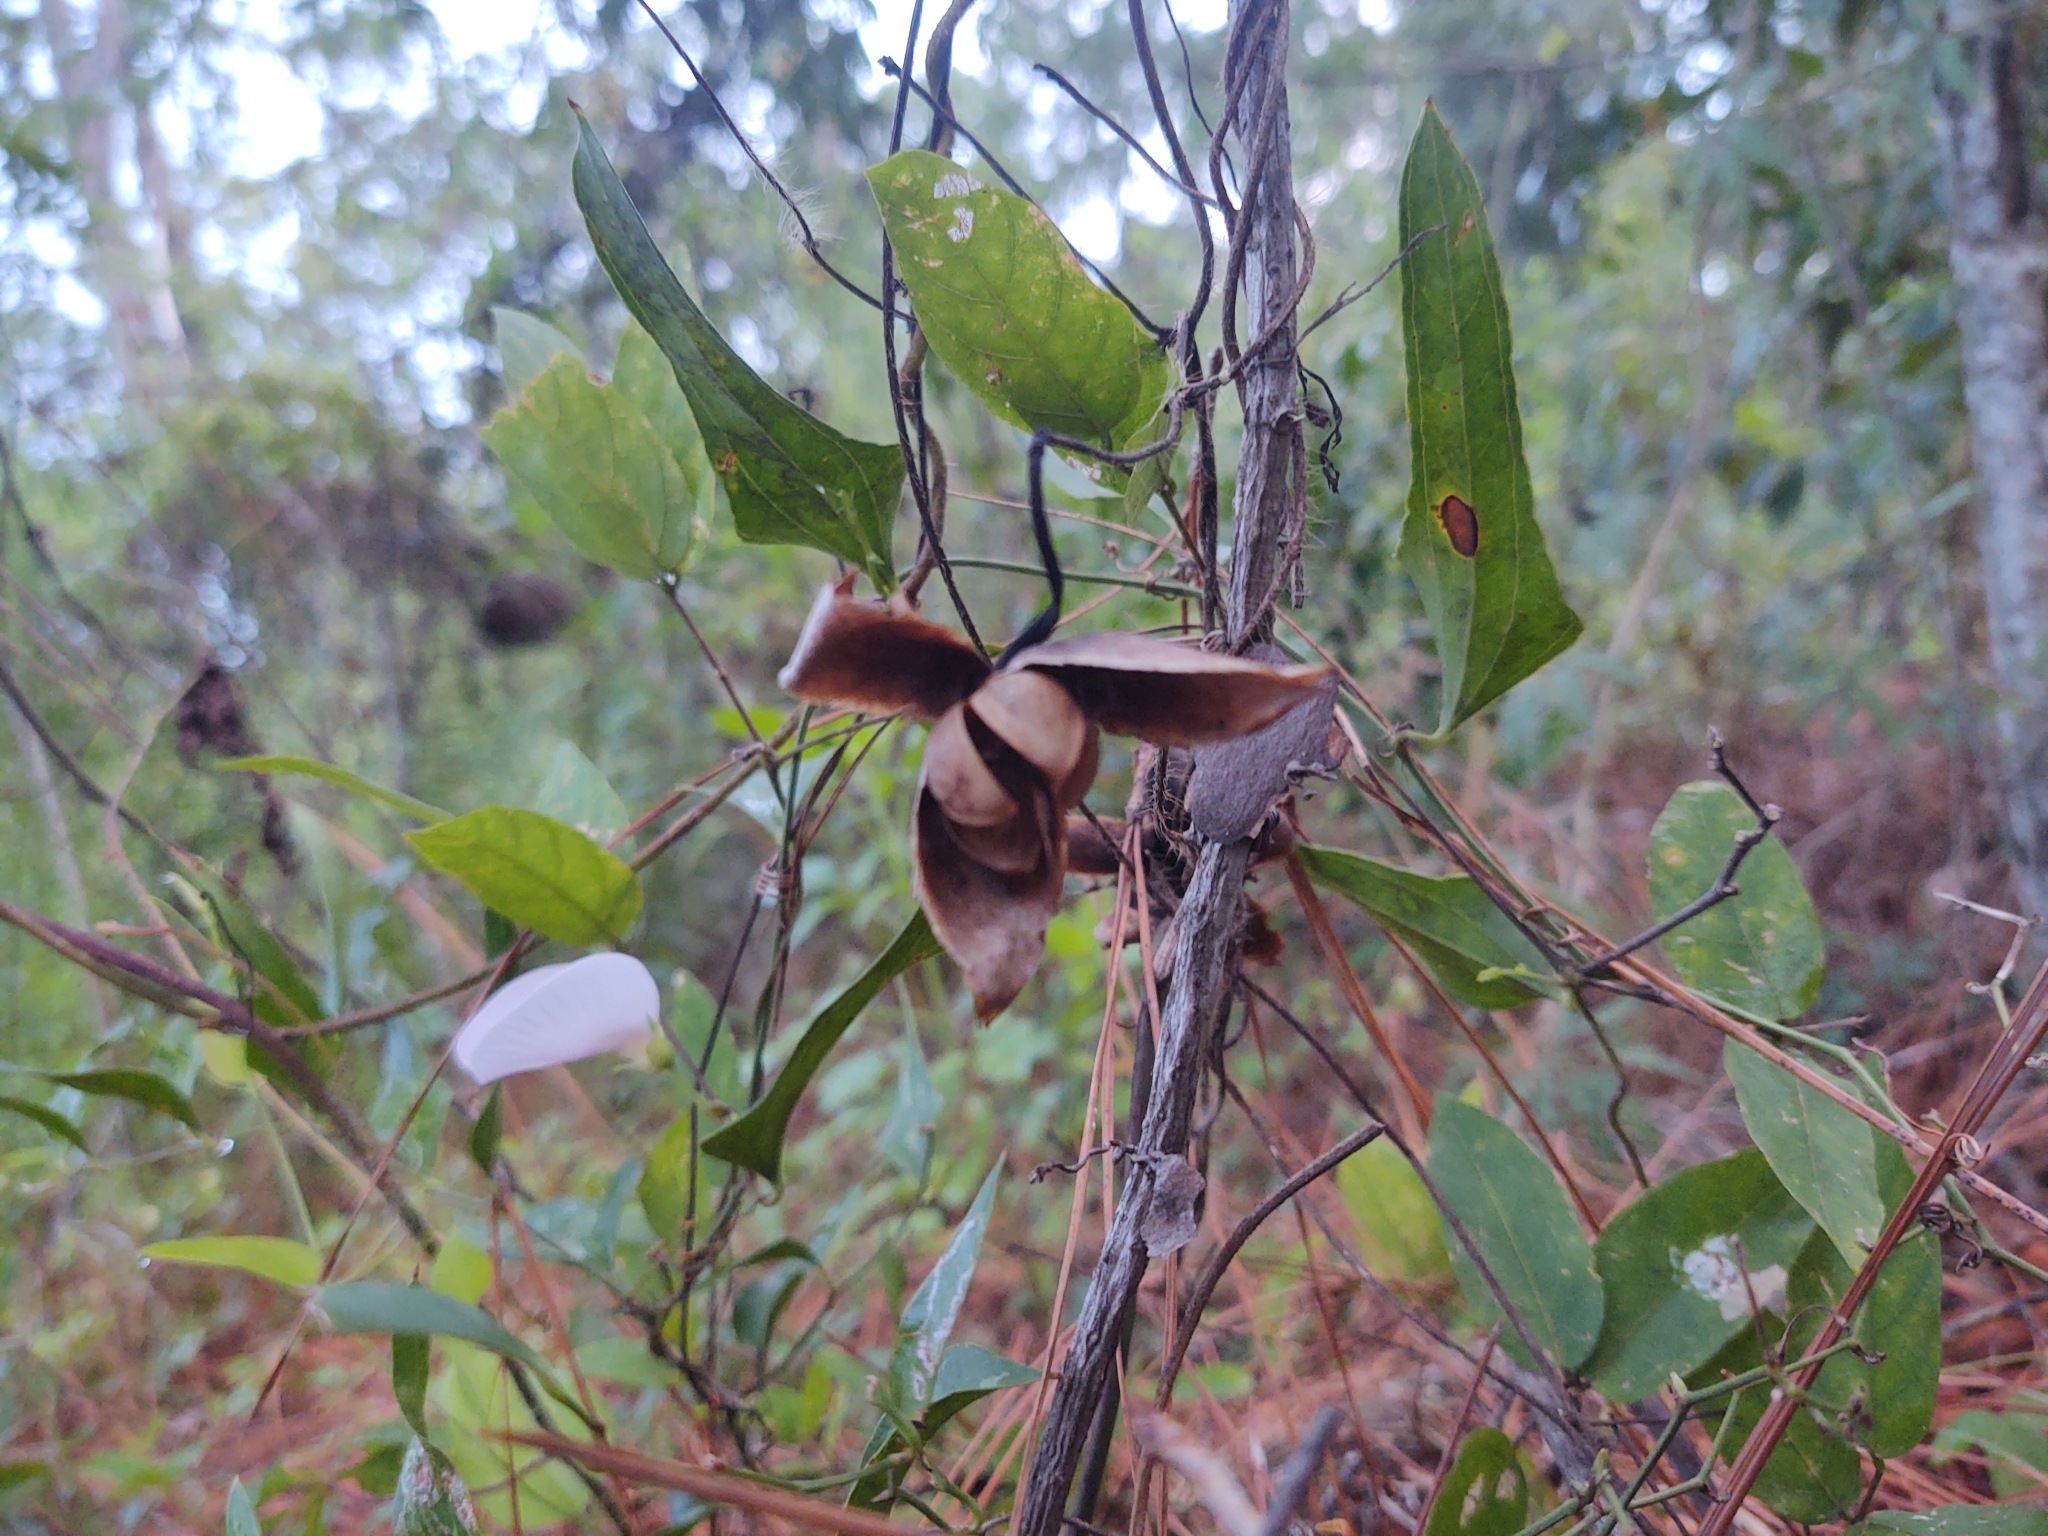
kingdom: Plantae
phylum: Tracheophyta
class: Magnoliopsida
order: Solanales
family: Convolvulaceae
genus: Distimake
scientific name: Distimake dissectus
